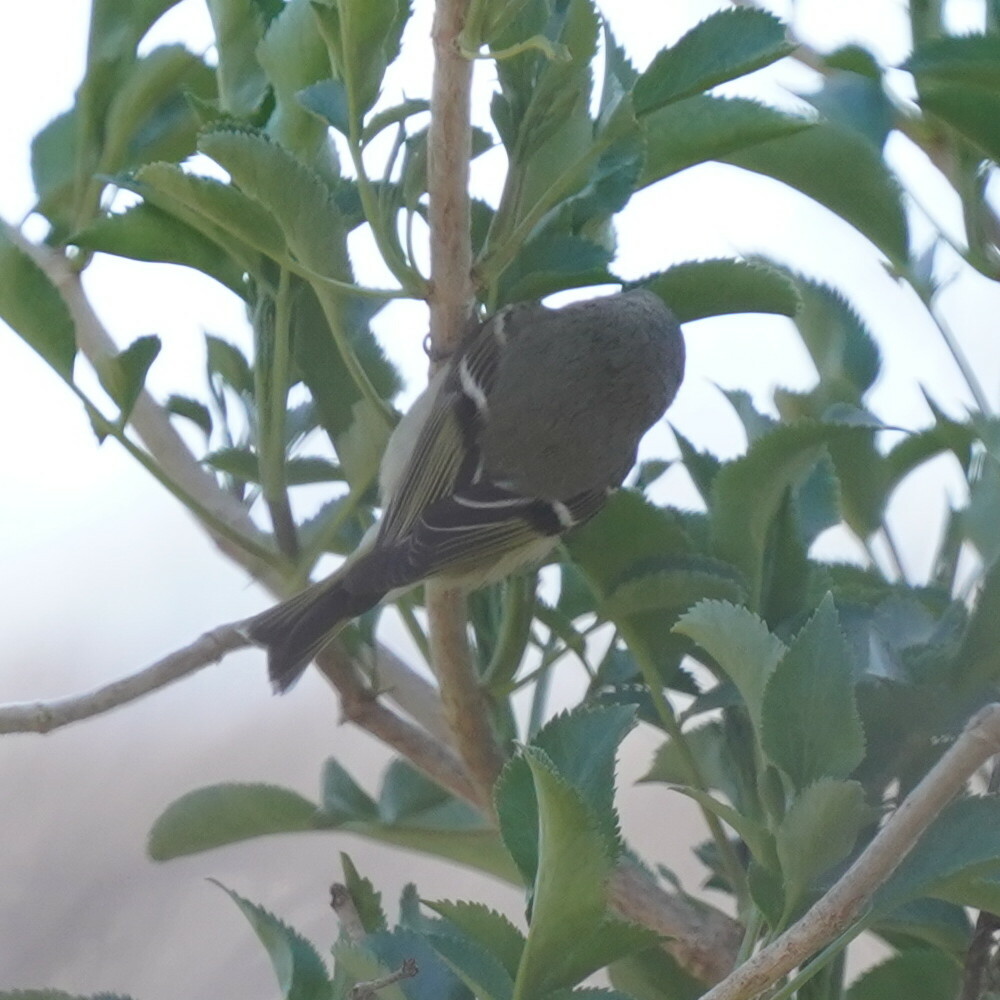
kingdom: Animalia
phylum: Chordata
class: Aves
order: Passeriformes
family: Regulidae
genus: Regulus
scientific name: Regulus calendula
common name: Ruby-crowned kinglet
